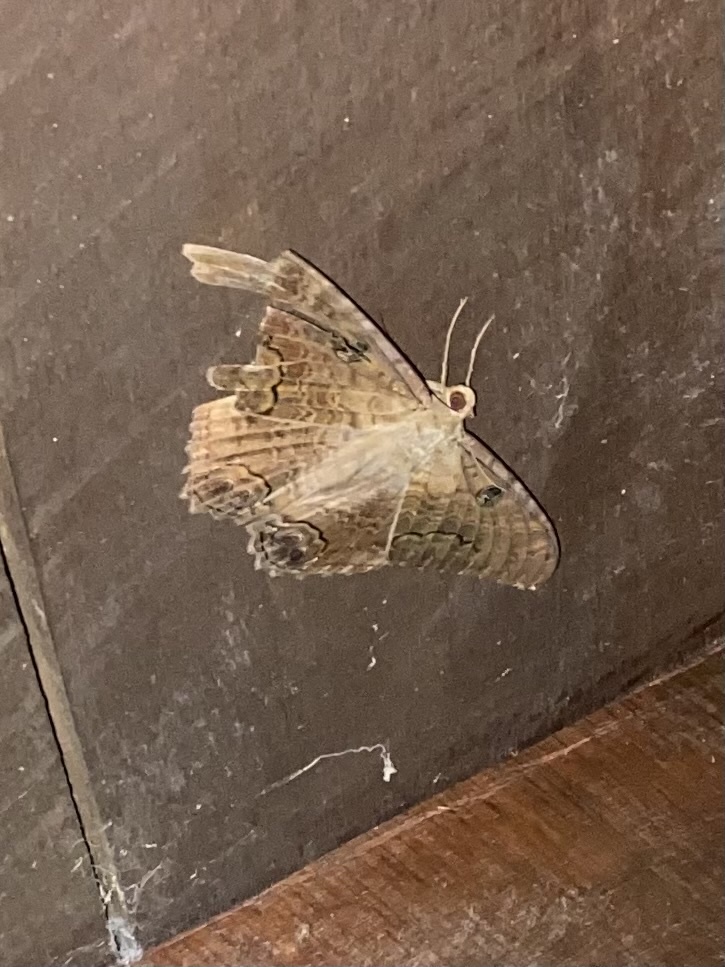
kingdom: Animalia
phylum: Arthropoda
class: Insecta
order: Lepidoptera
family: Erebidae
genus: Ascalapha
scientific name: Ascalapha odorata
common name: Black witch
